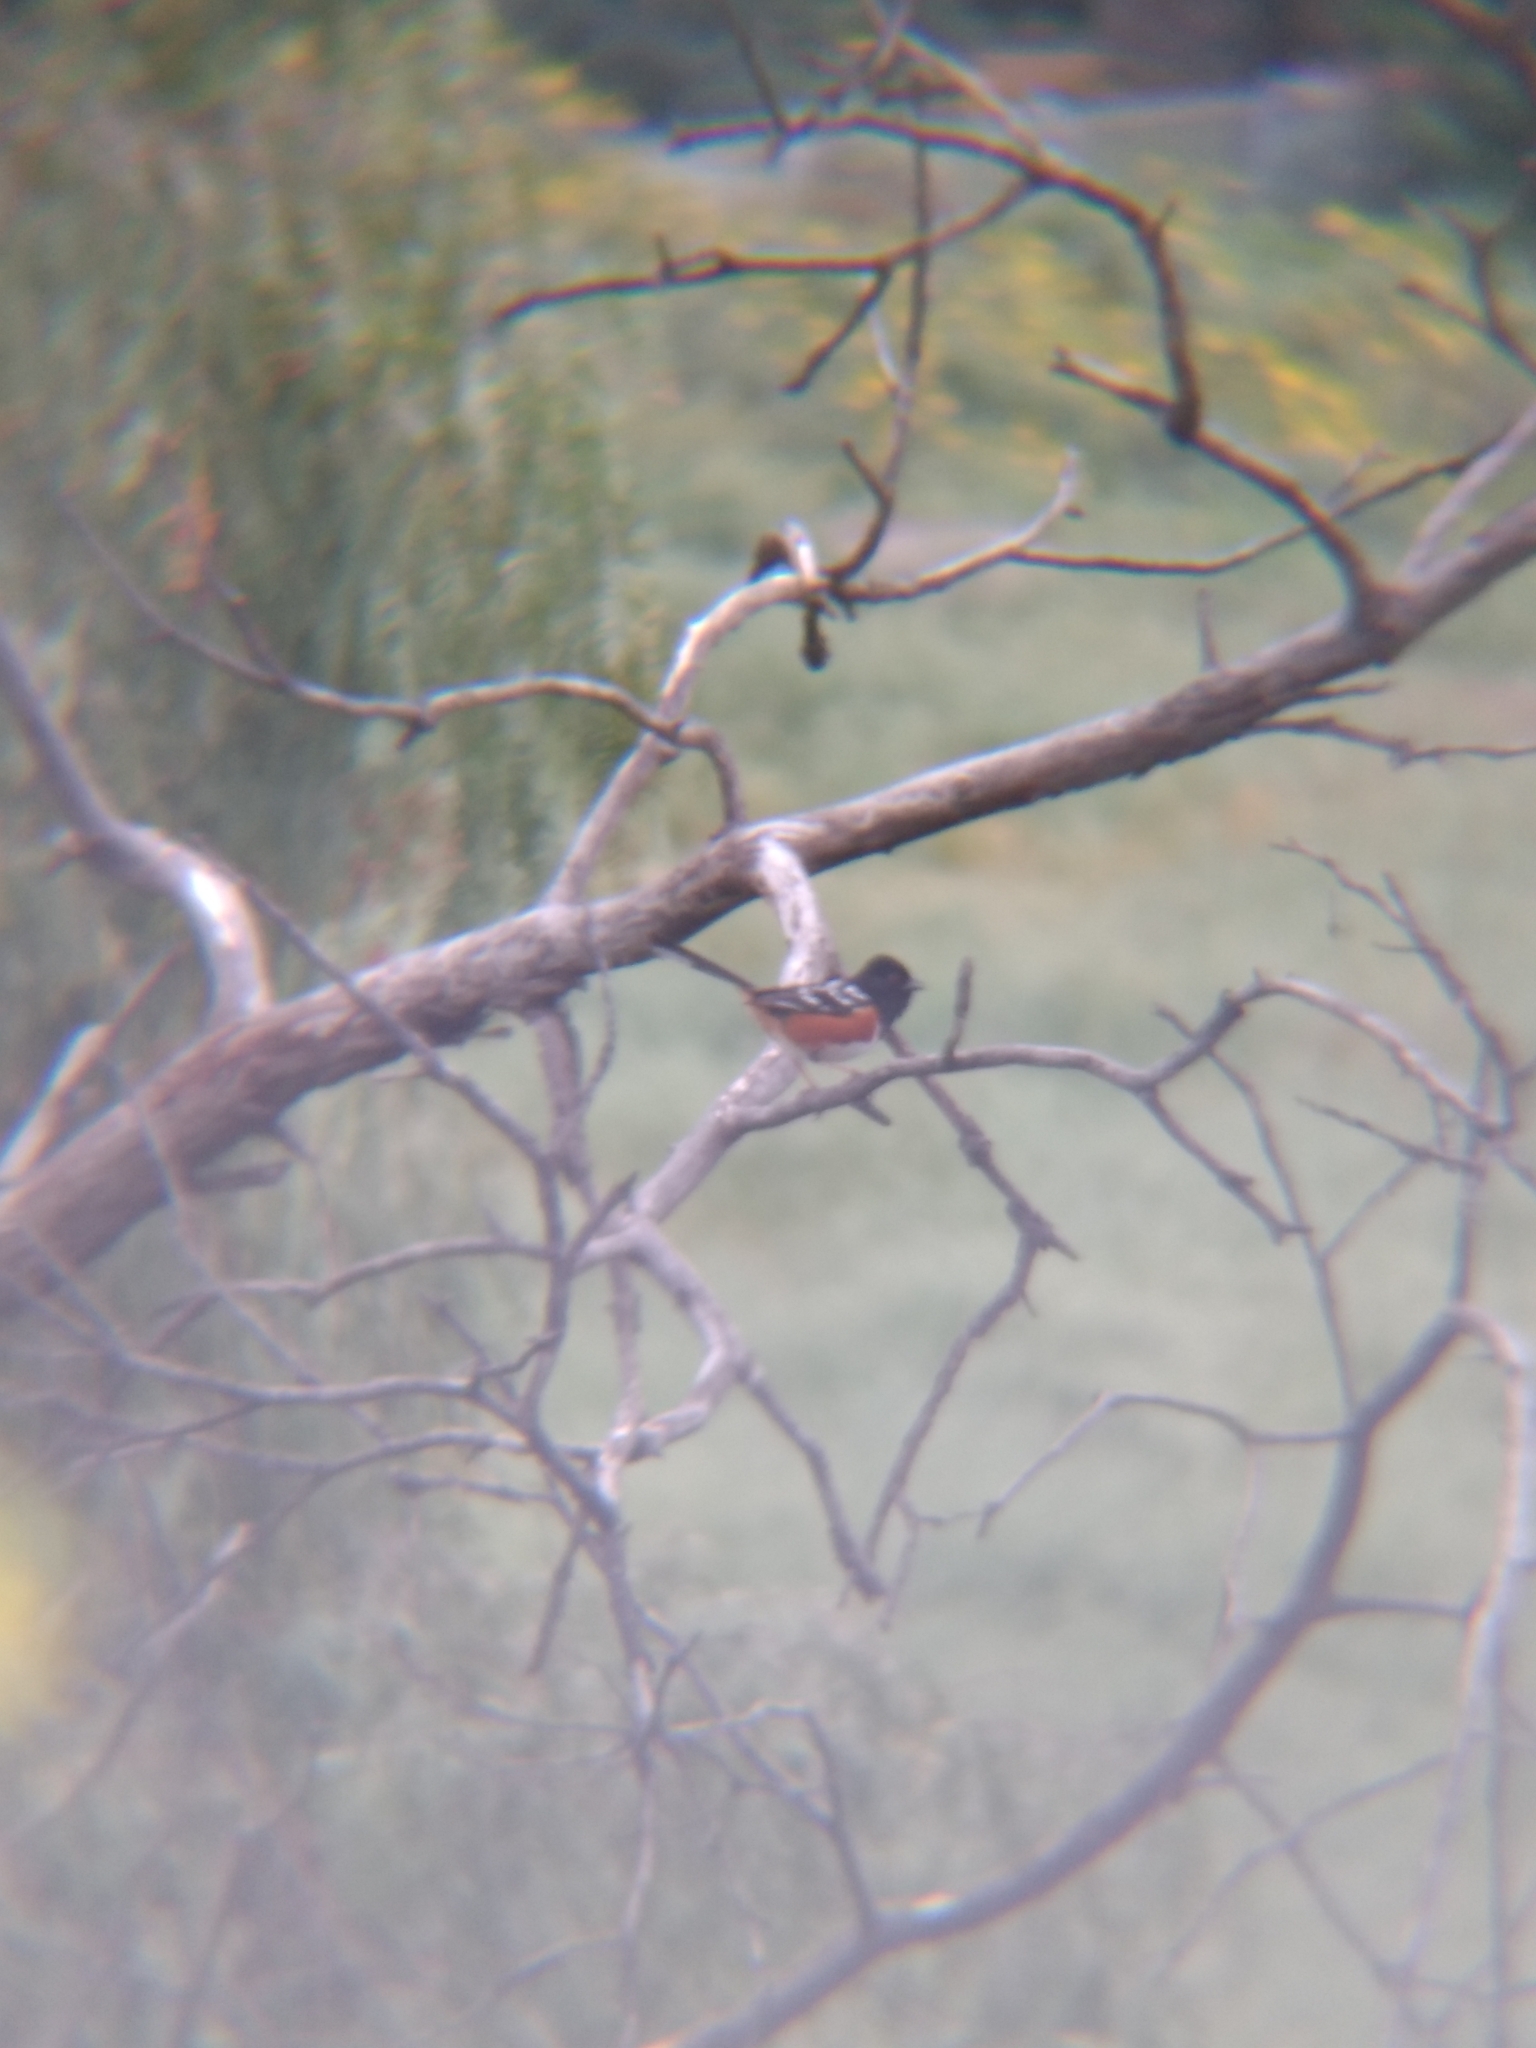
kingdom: Animalia
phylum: Chordata
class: Aves
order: Passeriformes
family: Passerellidae
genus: Pipilo
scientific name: Pipilo maculatus
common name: Spotted towhee
